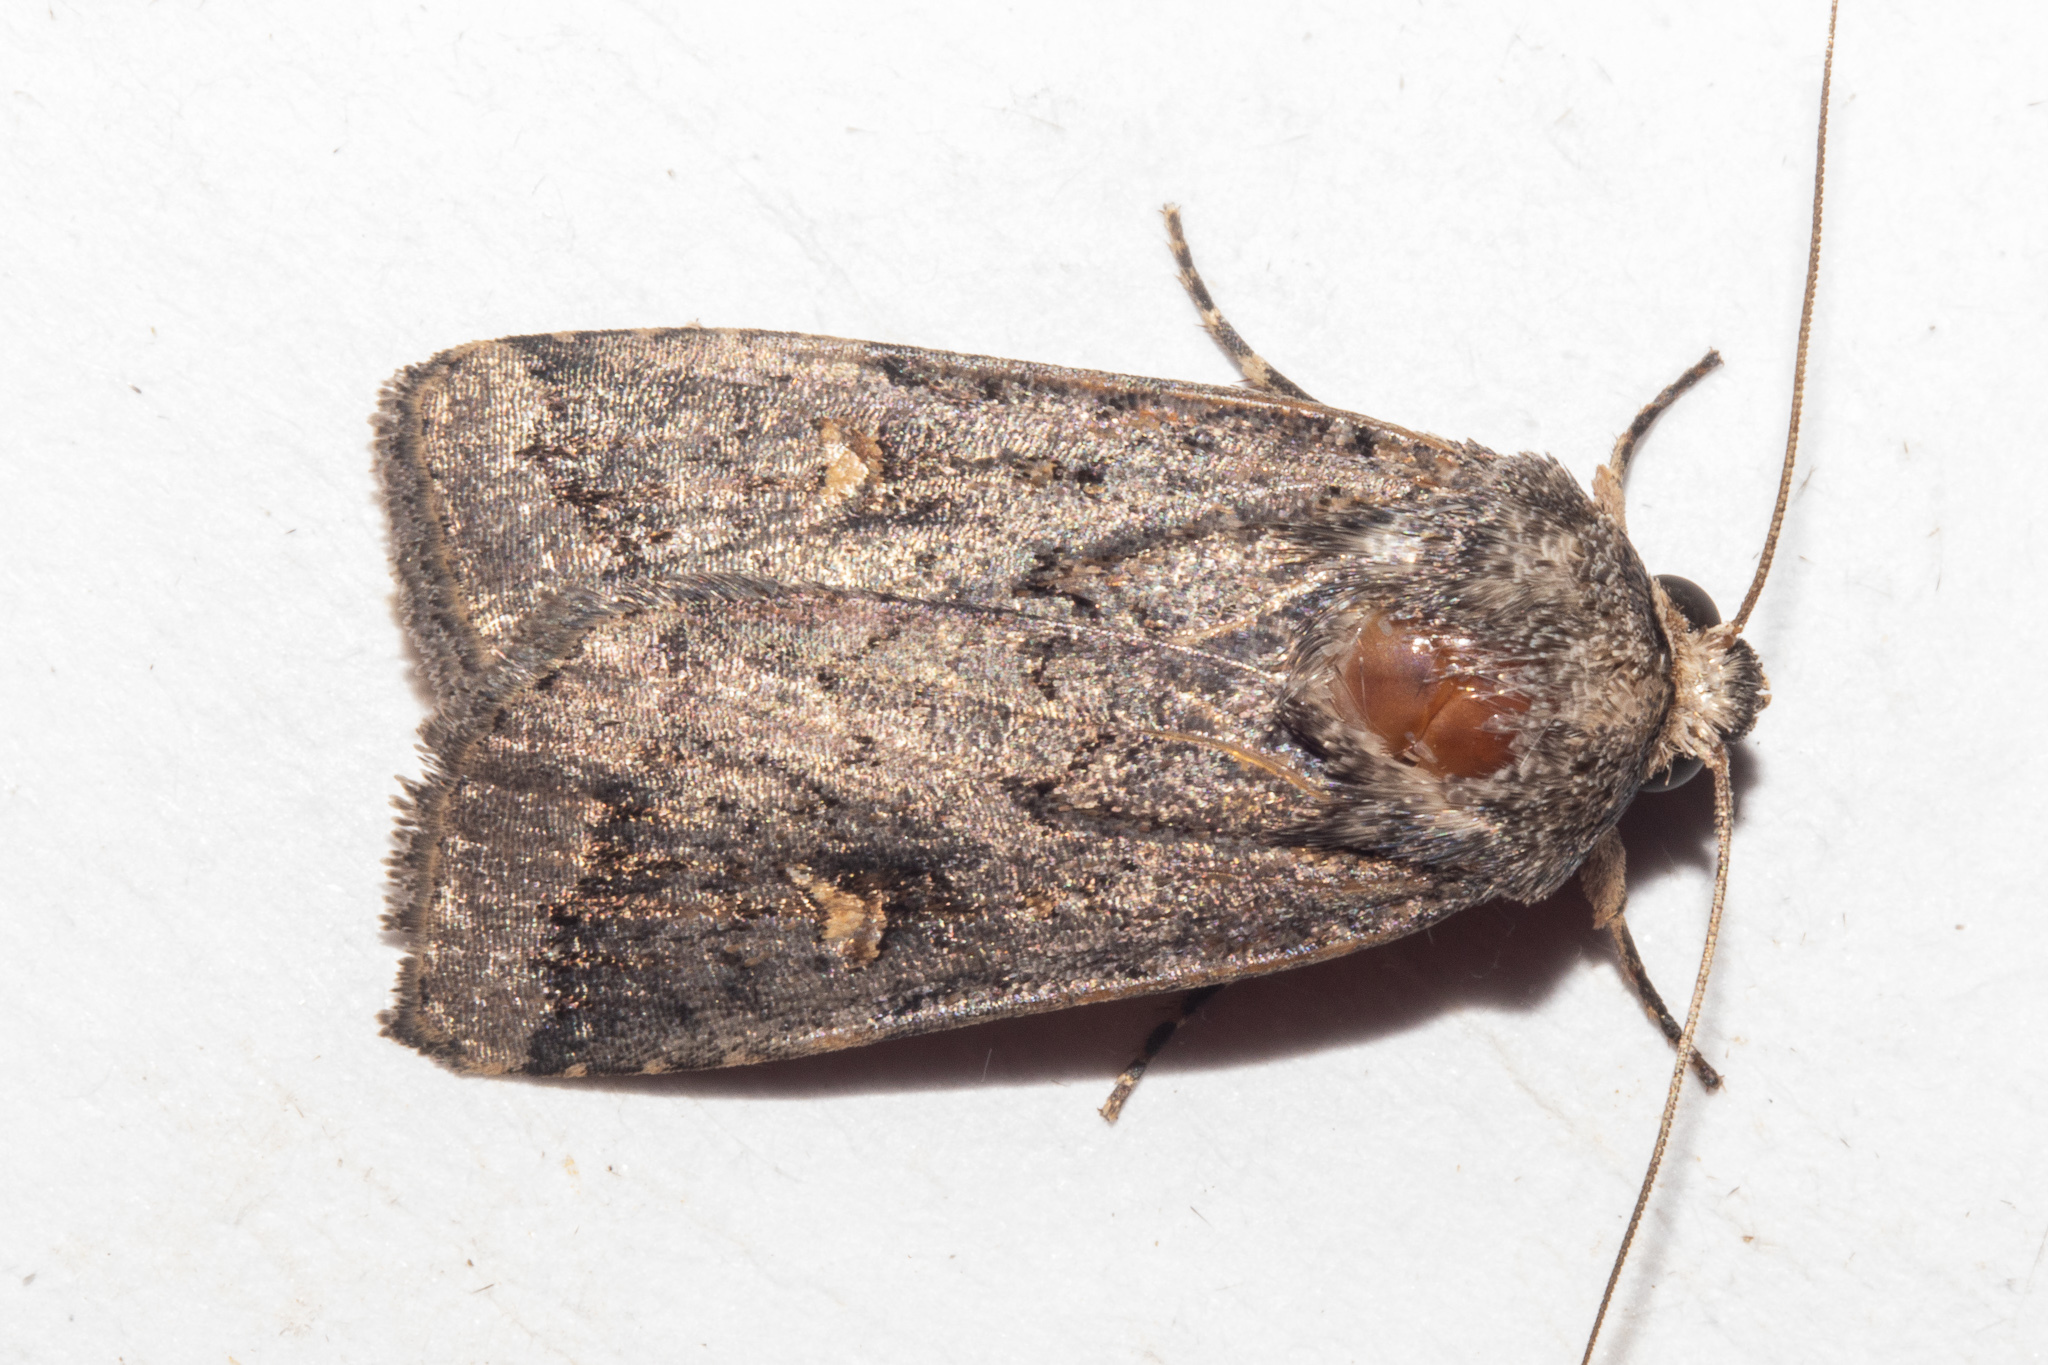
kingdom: Animalia
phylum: Arthropoda
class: Insecta
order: Lepidoptera
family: Noctuidae
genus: Proteuxoa
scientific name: Proteuxoa tetronycha
